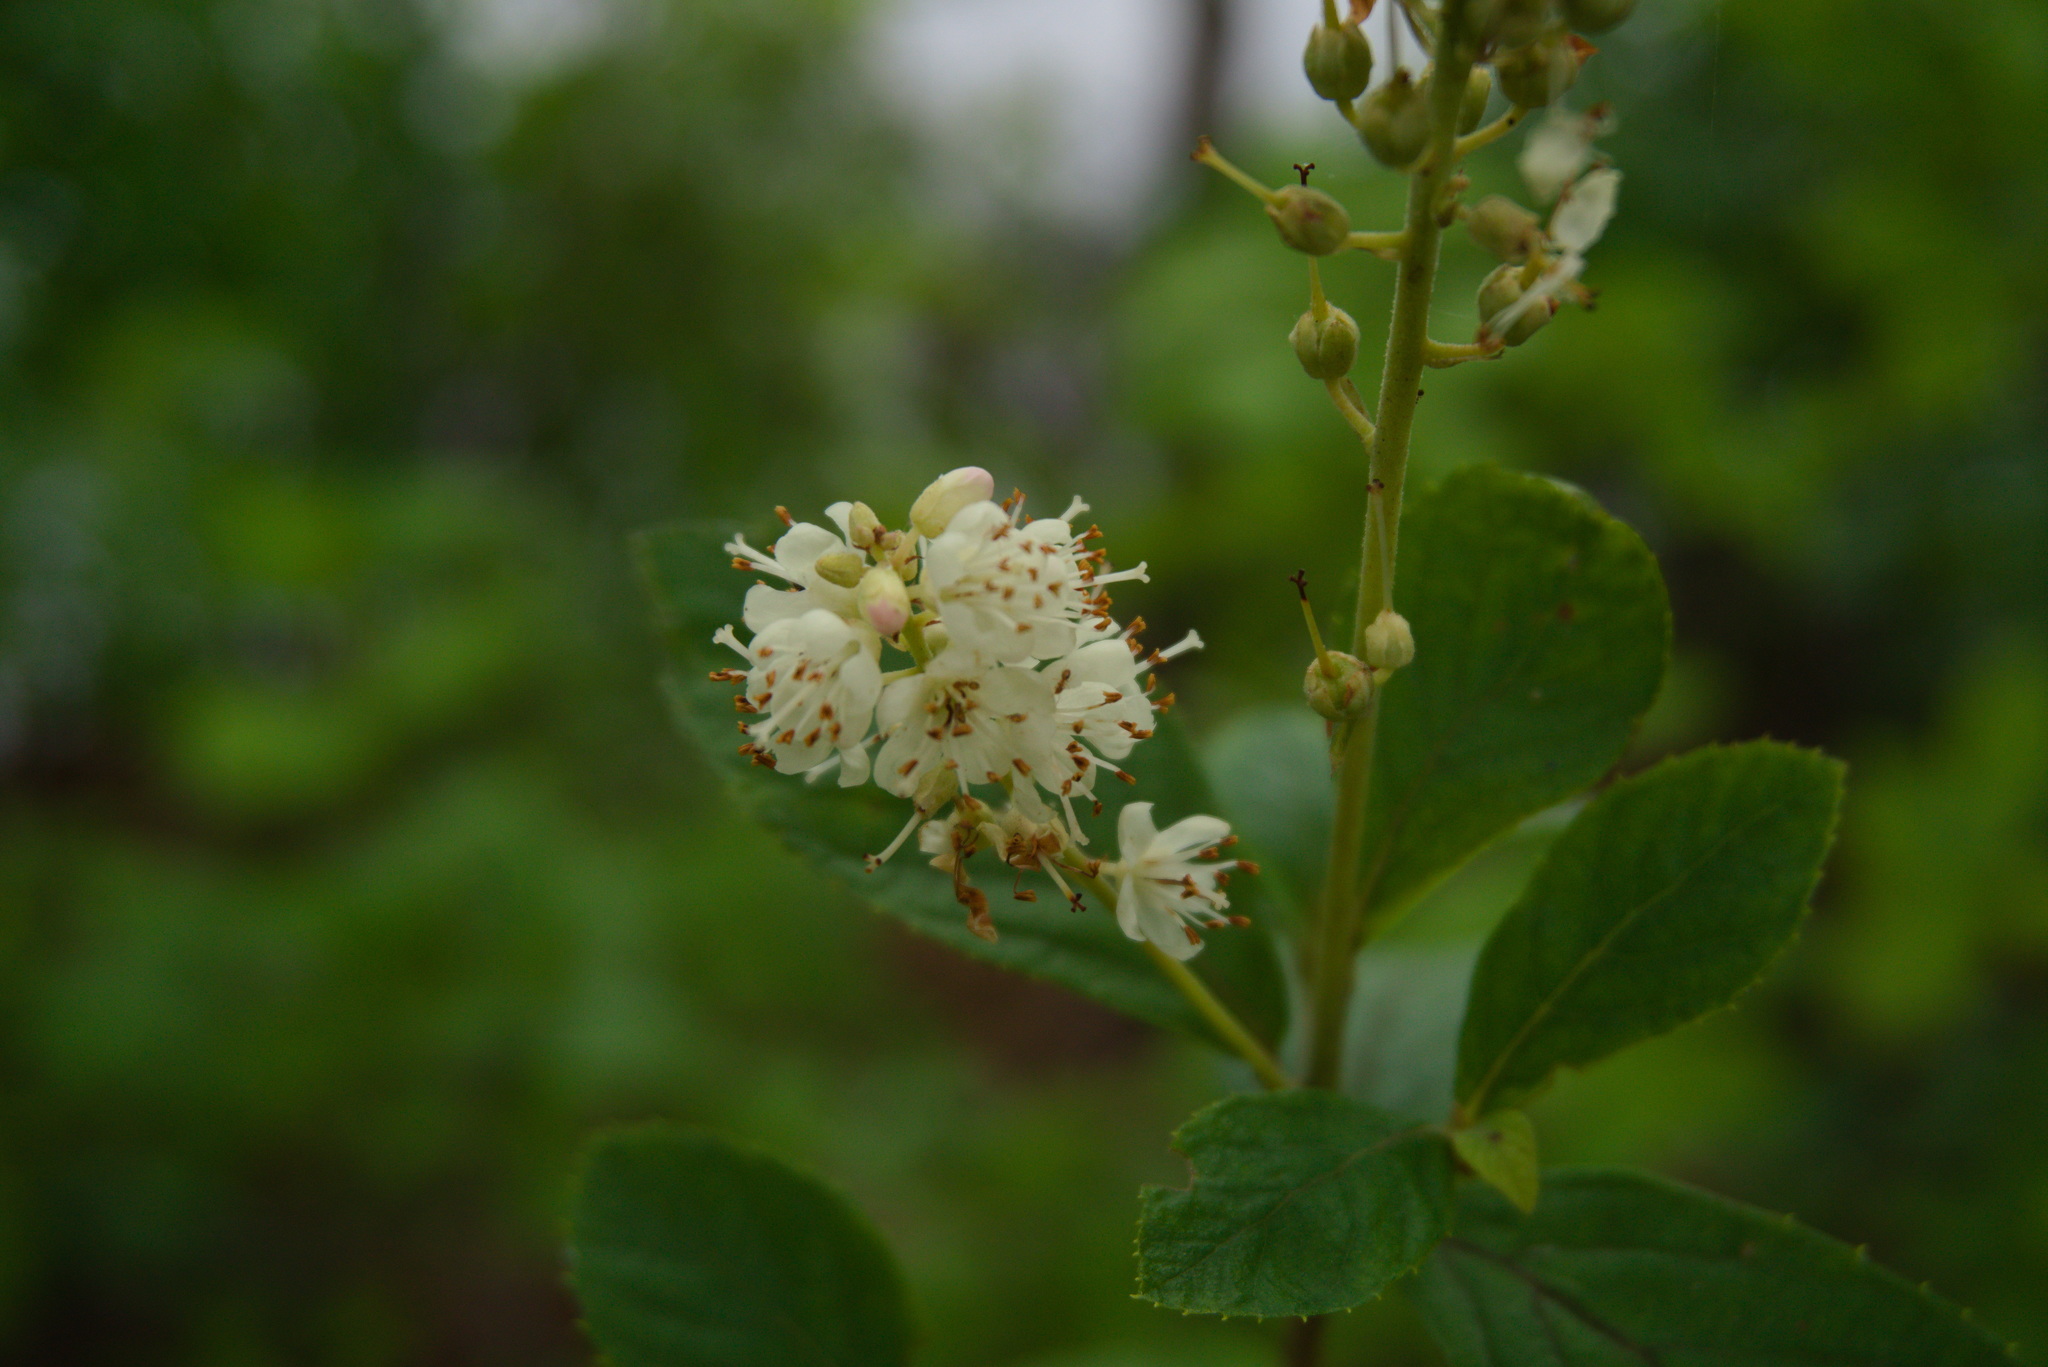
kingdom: Plantae
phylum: Tracheophyta
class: Magnoliopsida
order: Ericales
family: Clethraceae
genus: Clethra
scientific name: Clethra alnifolia
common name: Sweet pepperbush
